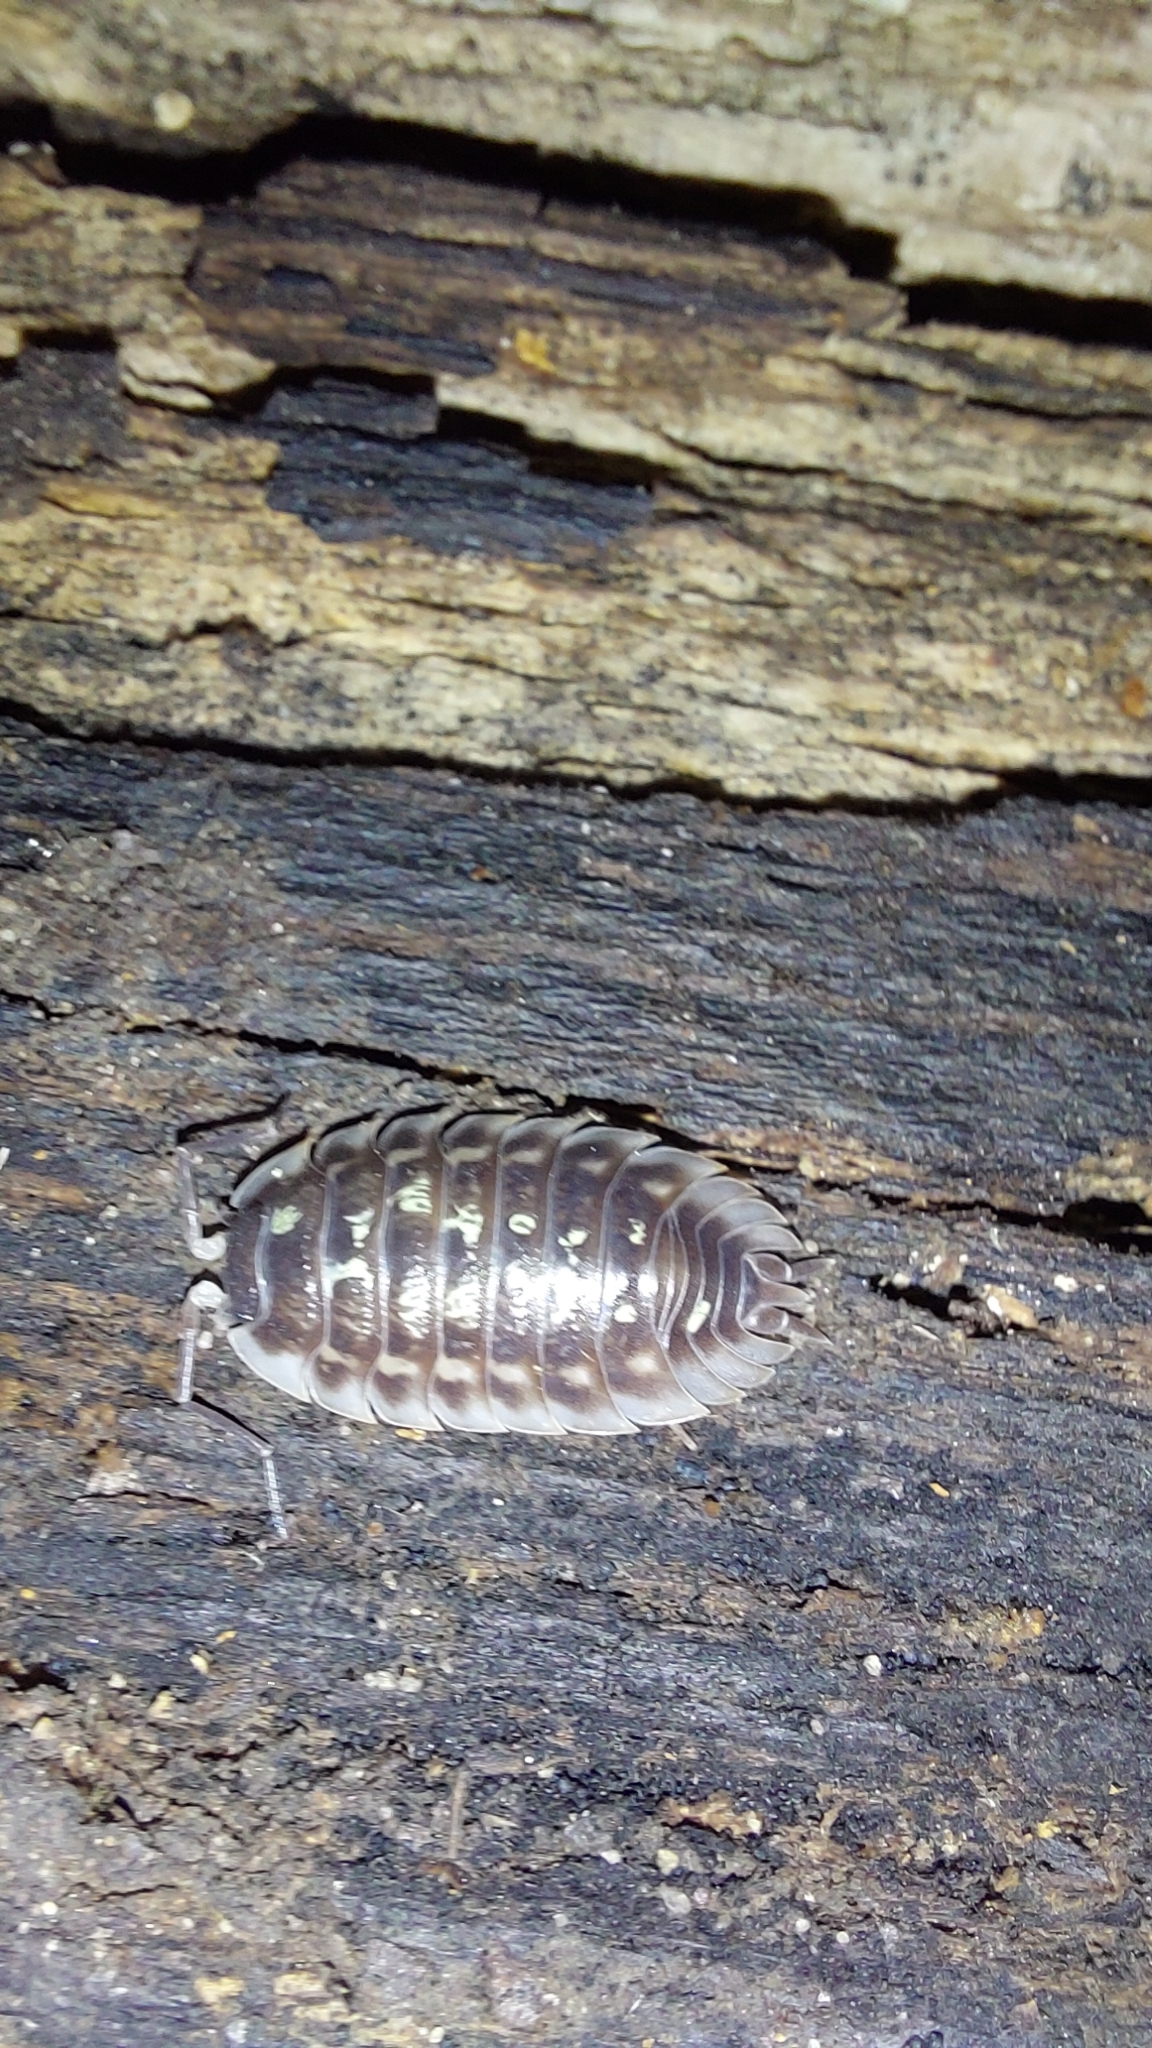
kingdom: Animalia
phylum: Arthropoda
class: Malacostraca
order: Isopoda
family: Oniscidae
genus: Oniscus
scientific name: Oniscus asellus
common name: Common shiny woodlouse
